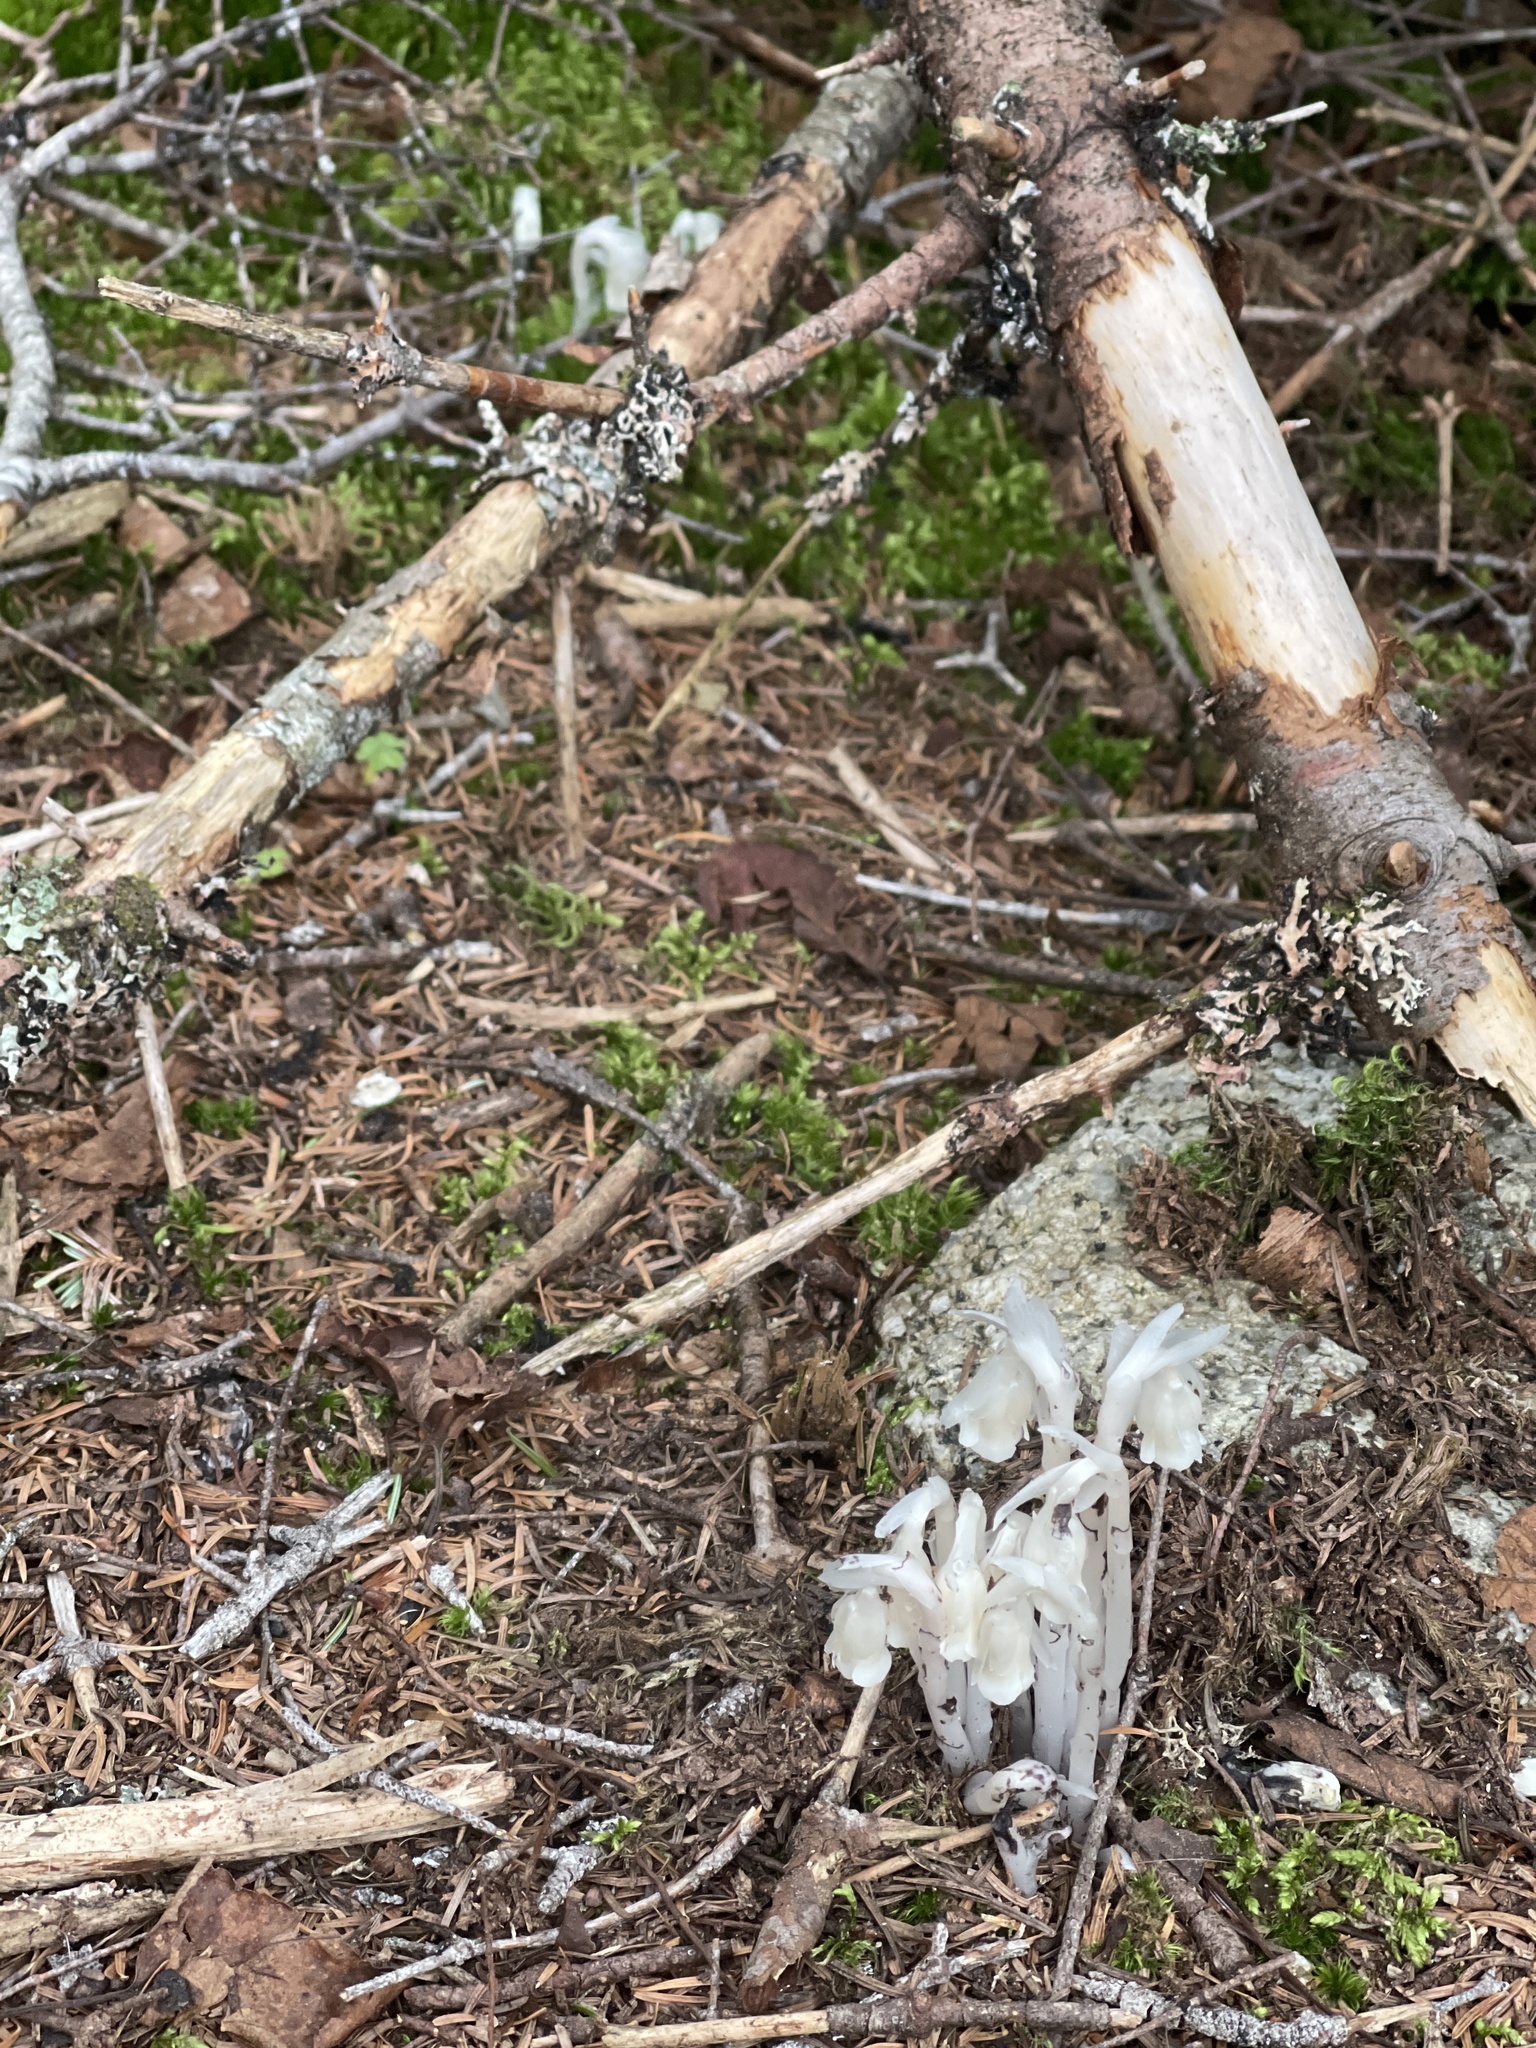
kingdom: Plantae
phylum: Tracheophyta
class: Magnoliopsida
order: Ericales
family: Ericaceae
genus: Monotropa
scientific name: Monotropa uniflora
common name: Convulsion root
